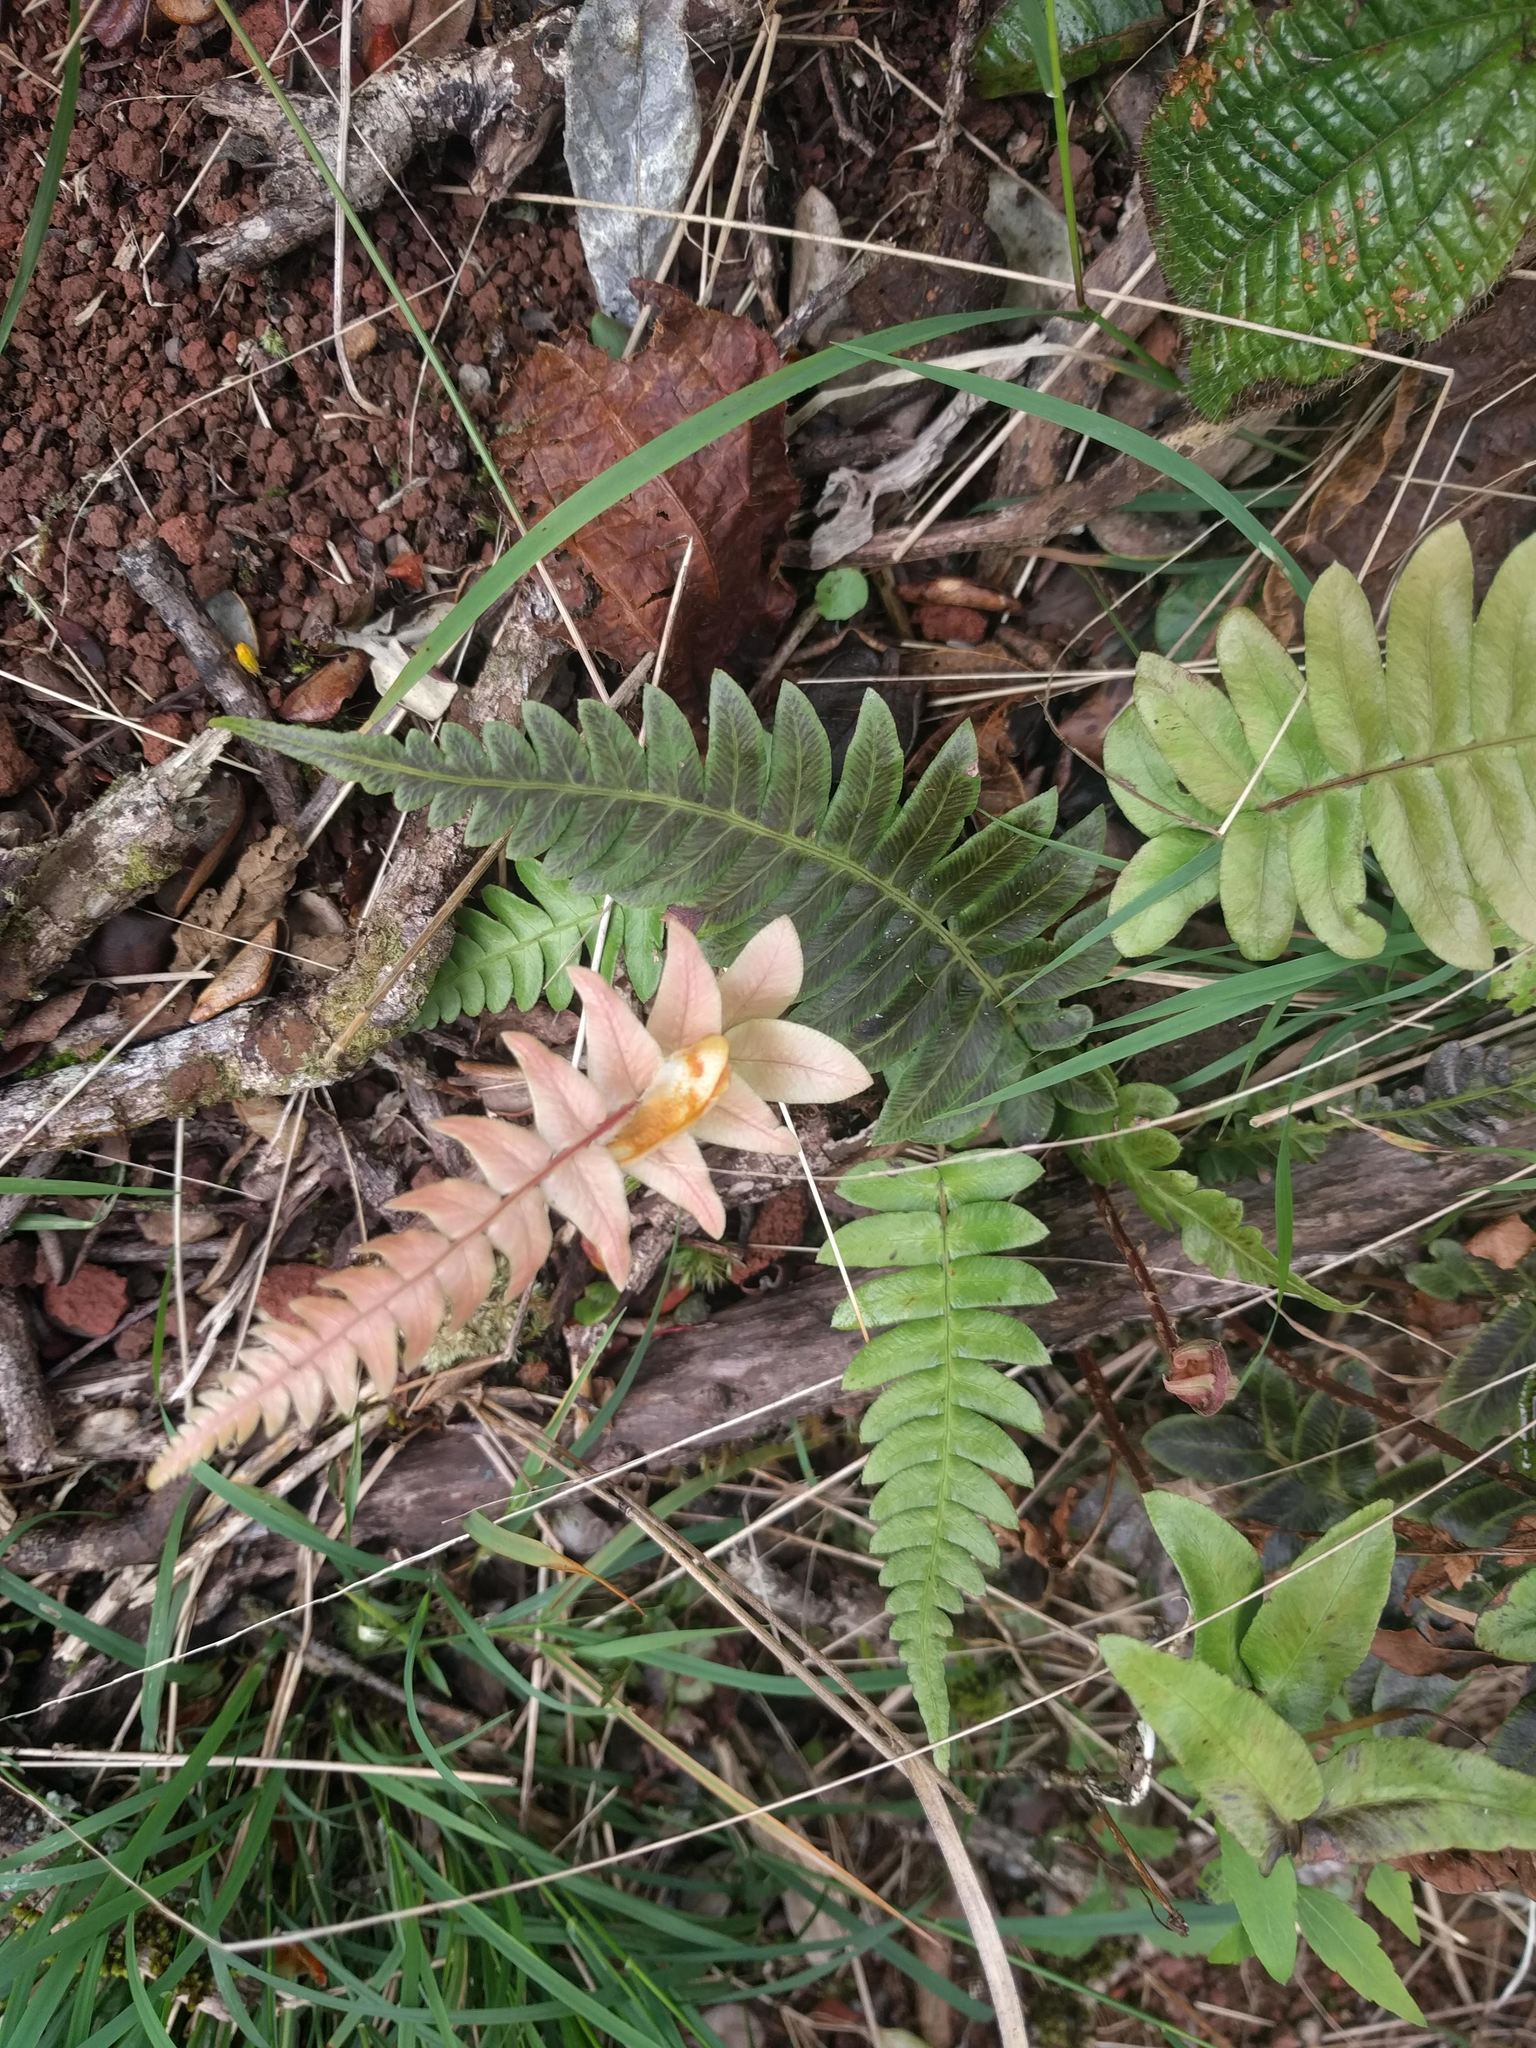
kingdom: Plantae
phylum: Tracheophyta
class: Polypodiopsida
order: Polypodiales
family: Blechnaceae
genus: Blechnum
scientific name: Blechnum appendiculatum
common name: Palm fern
